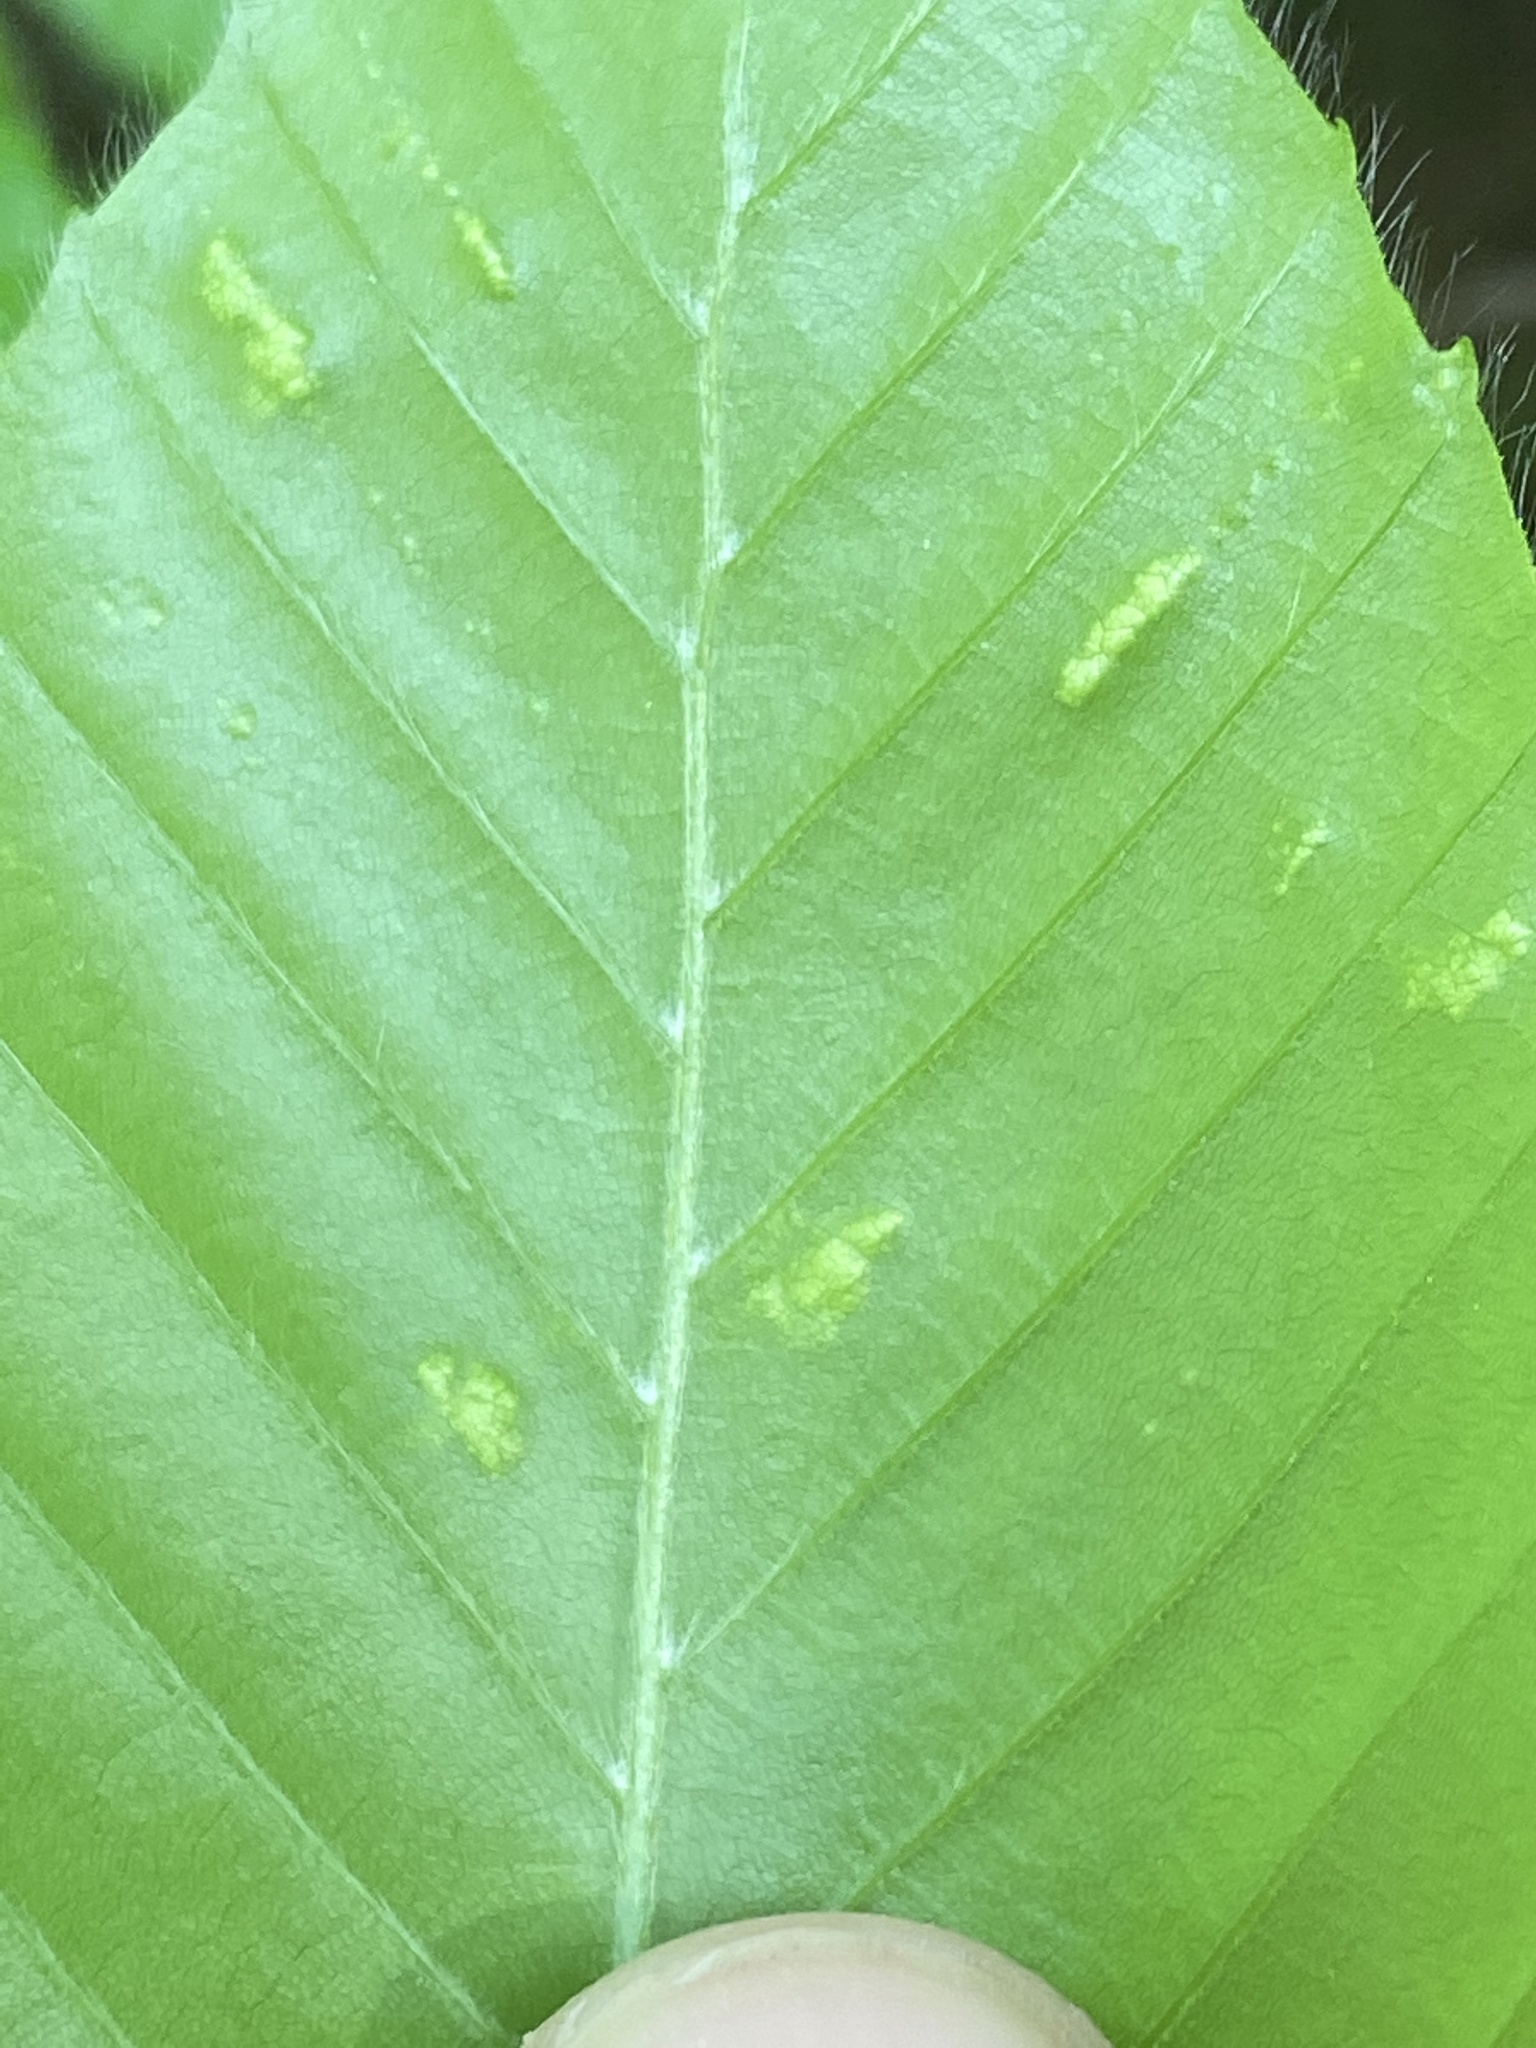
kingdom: Animalia
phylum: Arthropoda
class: Arachnida
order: Trombidiformes
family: Eriophyidae
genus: Acalitus
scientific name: Acalitus
